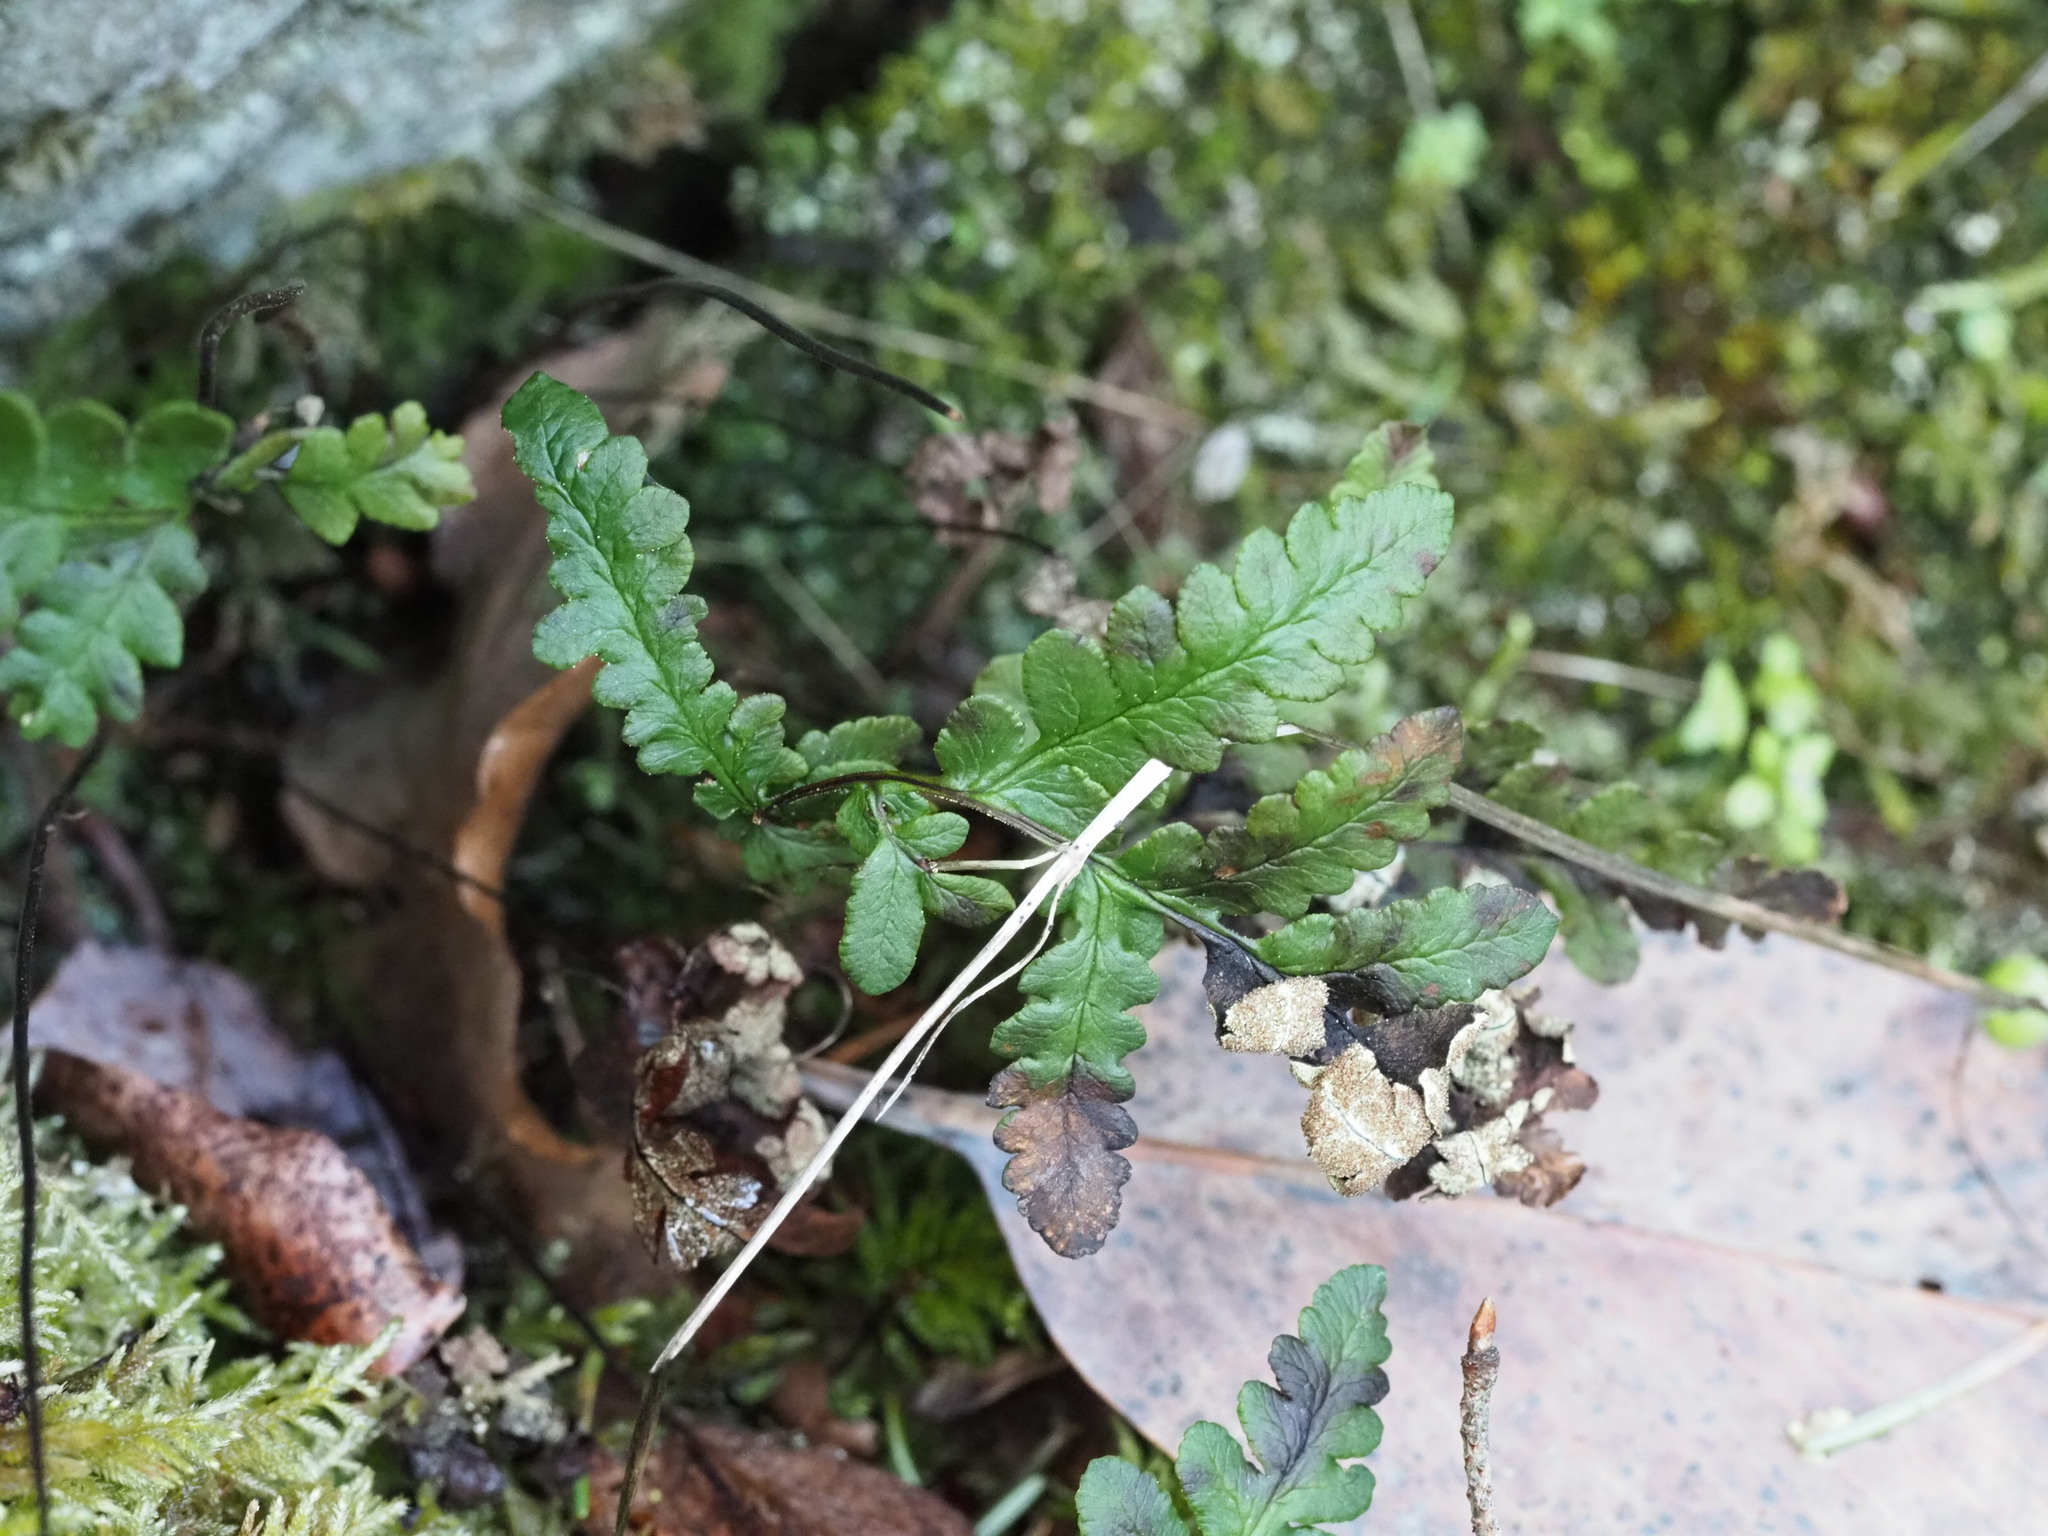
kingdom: Plantae
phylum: Tracheophyta
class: Polypodiopsida
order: Polypodiales
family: Pteridaceae
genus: Pentagramma
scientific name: Pentagramma triangularis
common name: Gold fern
